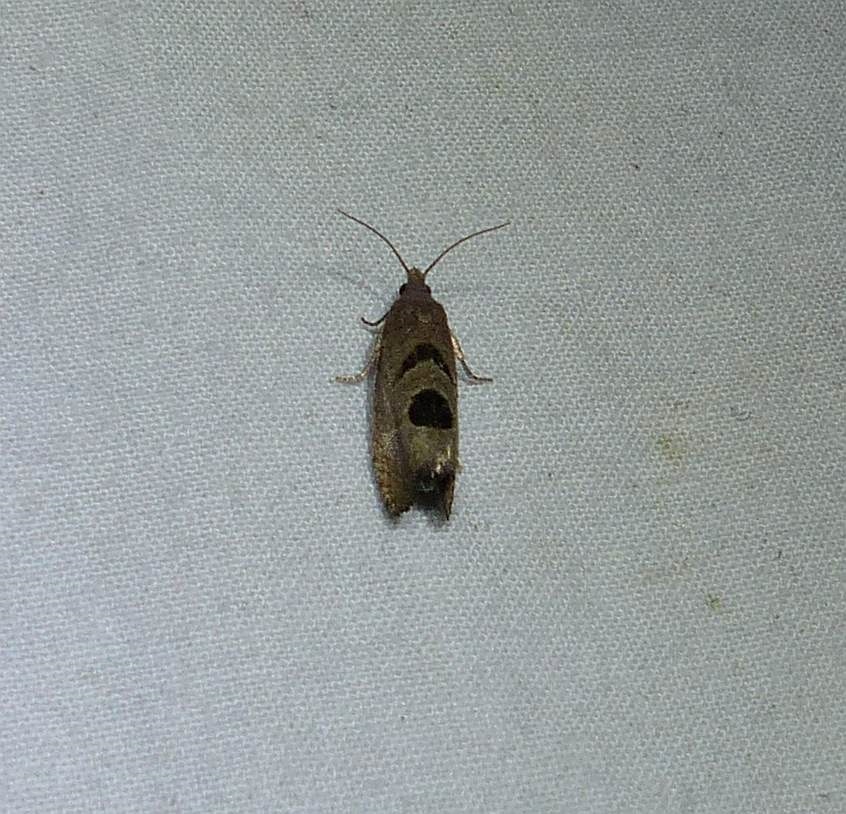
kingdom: Animalia
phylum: Arthropoda
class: Insecta
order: Lepidoptera
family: Tortricidae
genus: Eucosma
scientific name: Eucosma tomonana
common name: Aster-head eucosma moth
